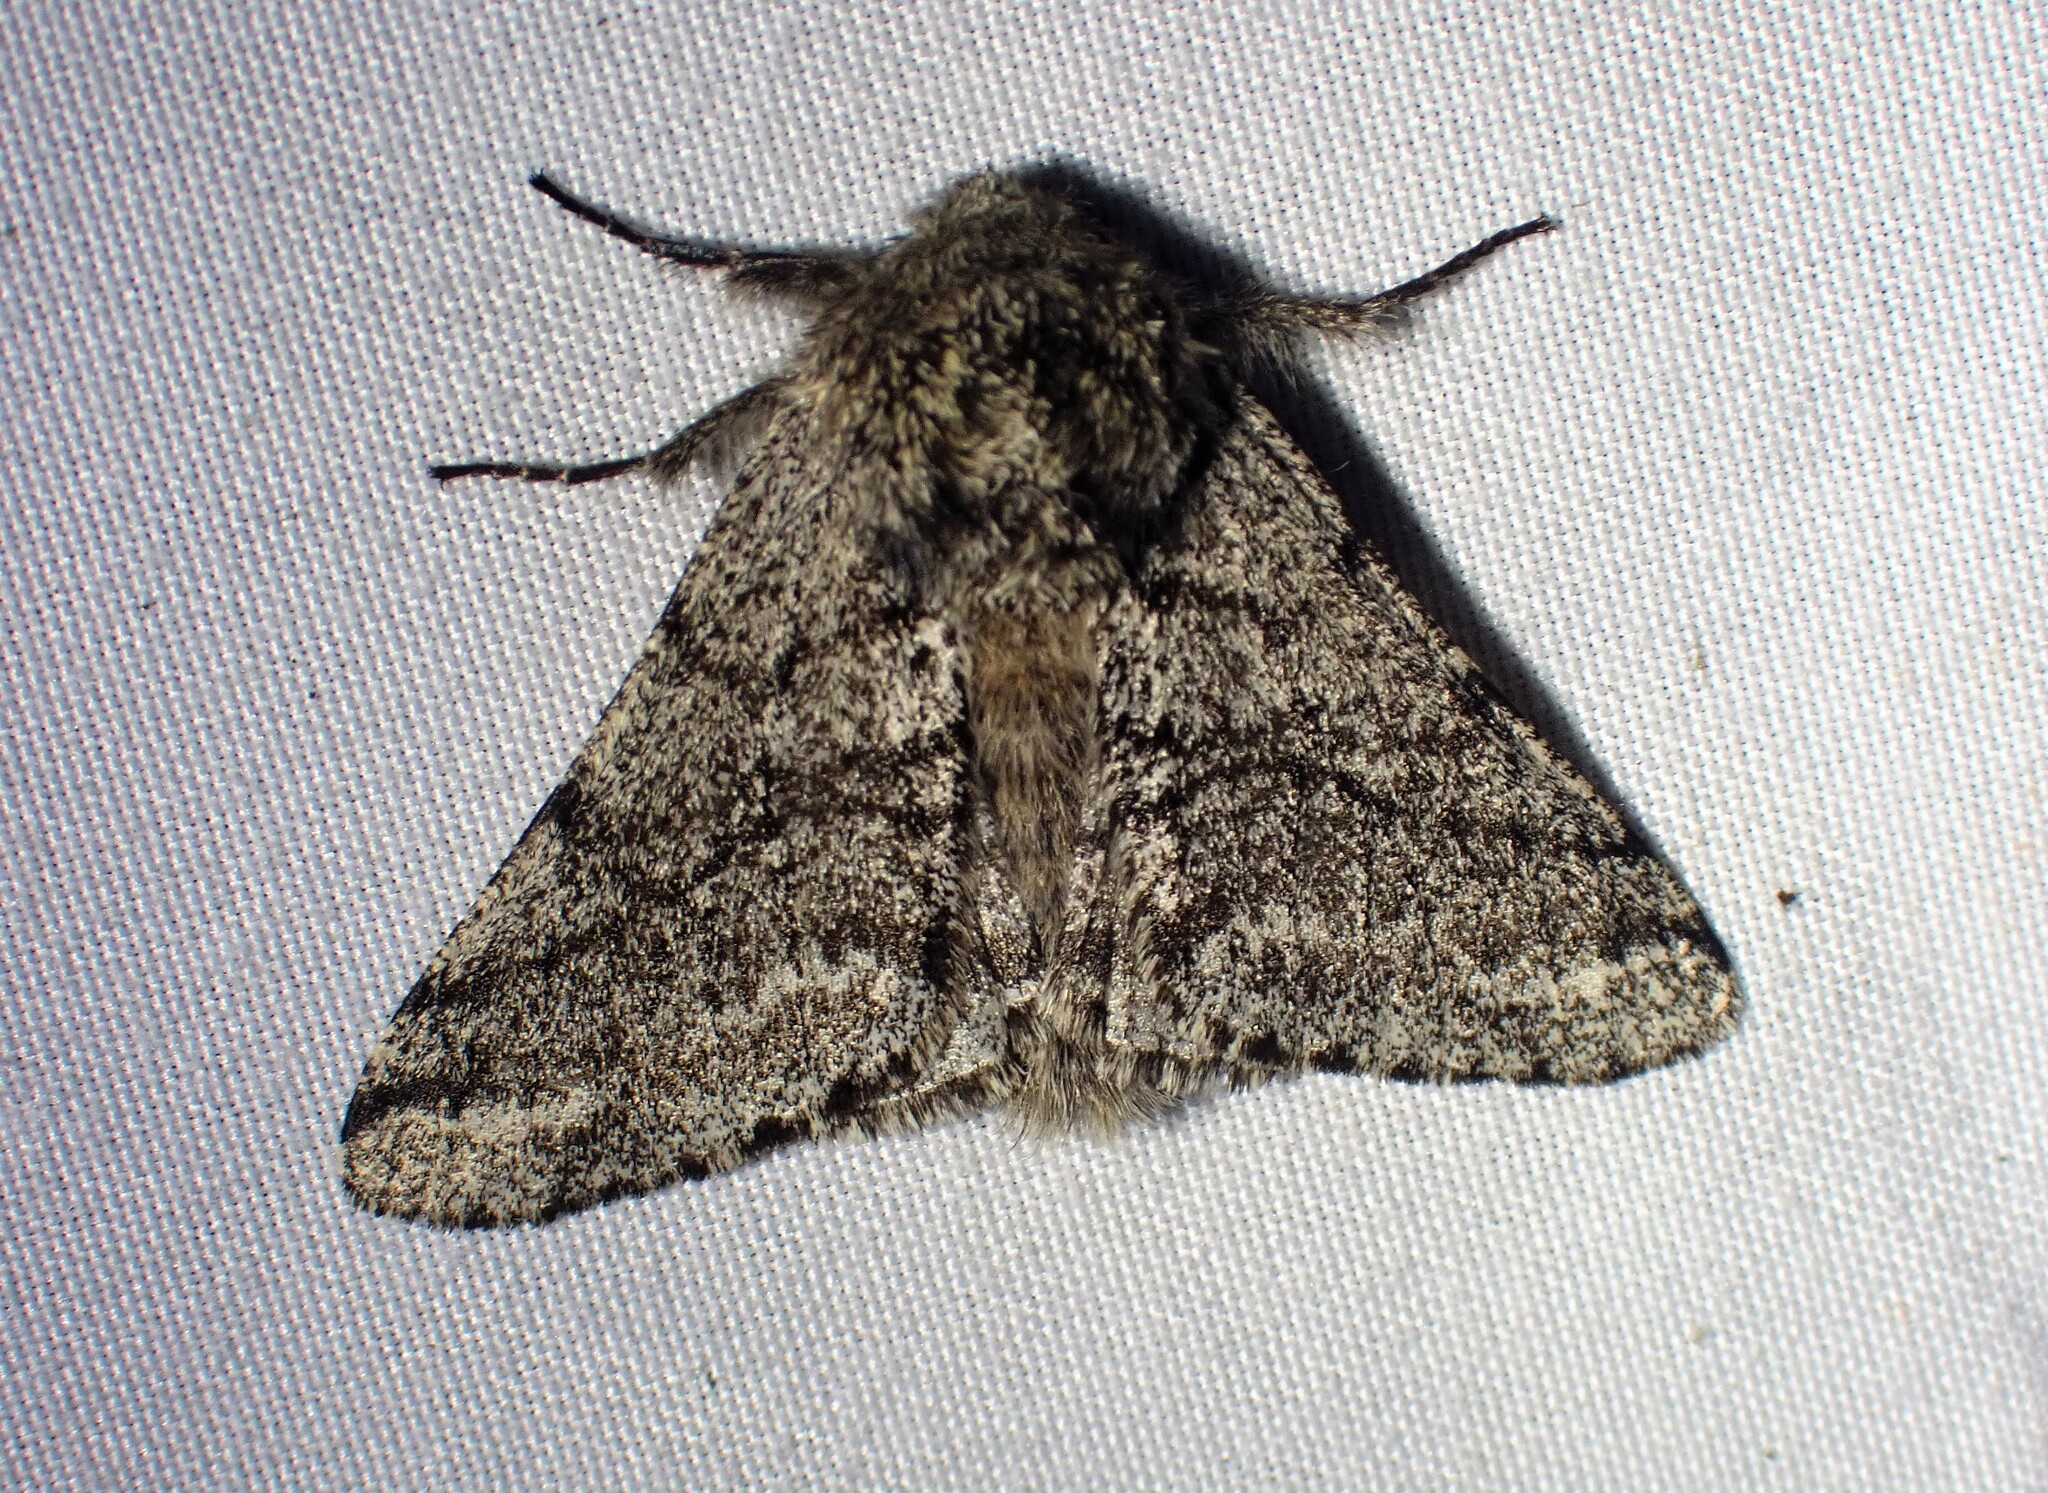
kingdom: Animalia
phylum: Arthropoda
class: Insecta
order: Lepidoptera
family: Geometridae
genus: Lycia
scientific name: Lycia ursaria
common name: Stout spanworm
